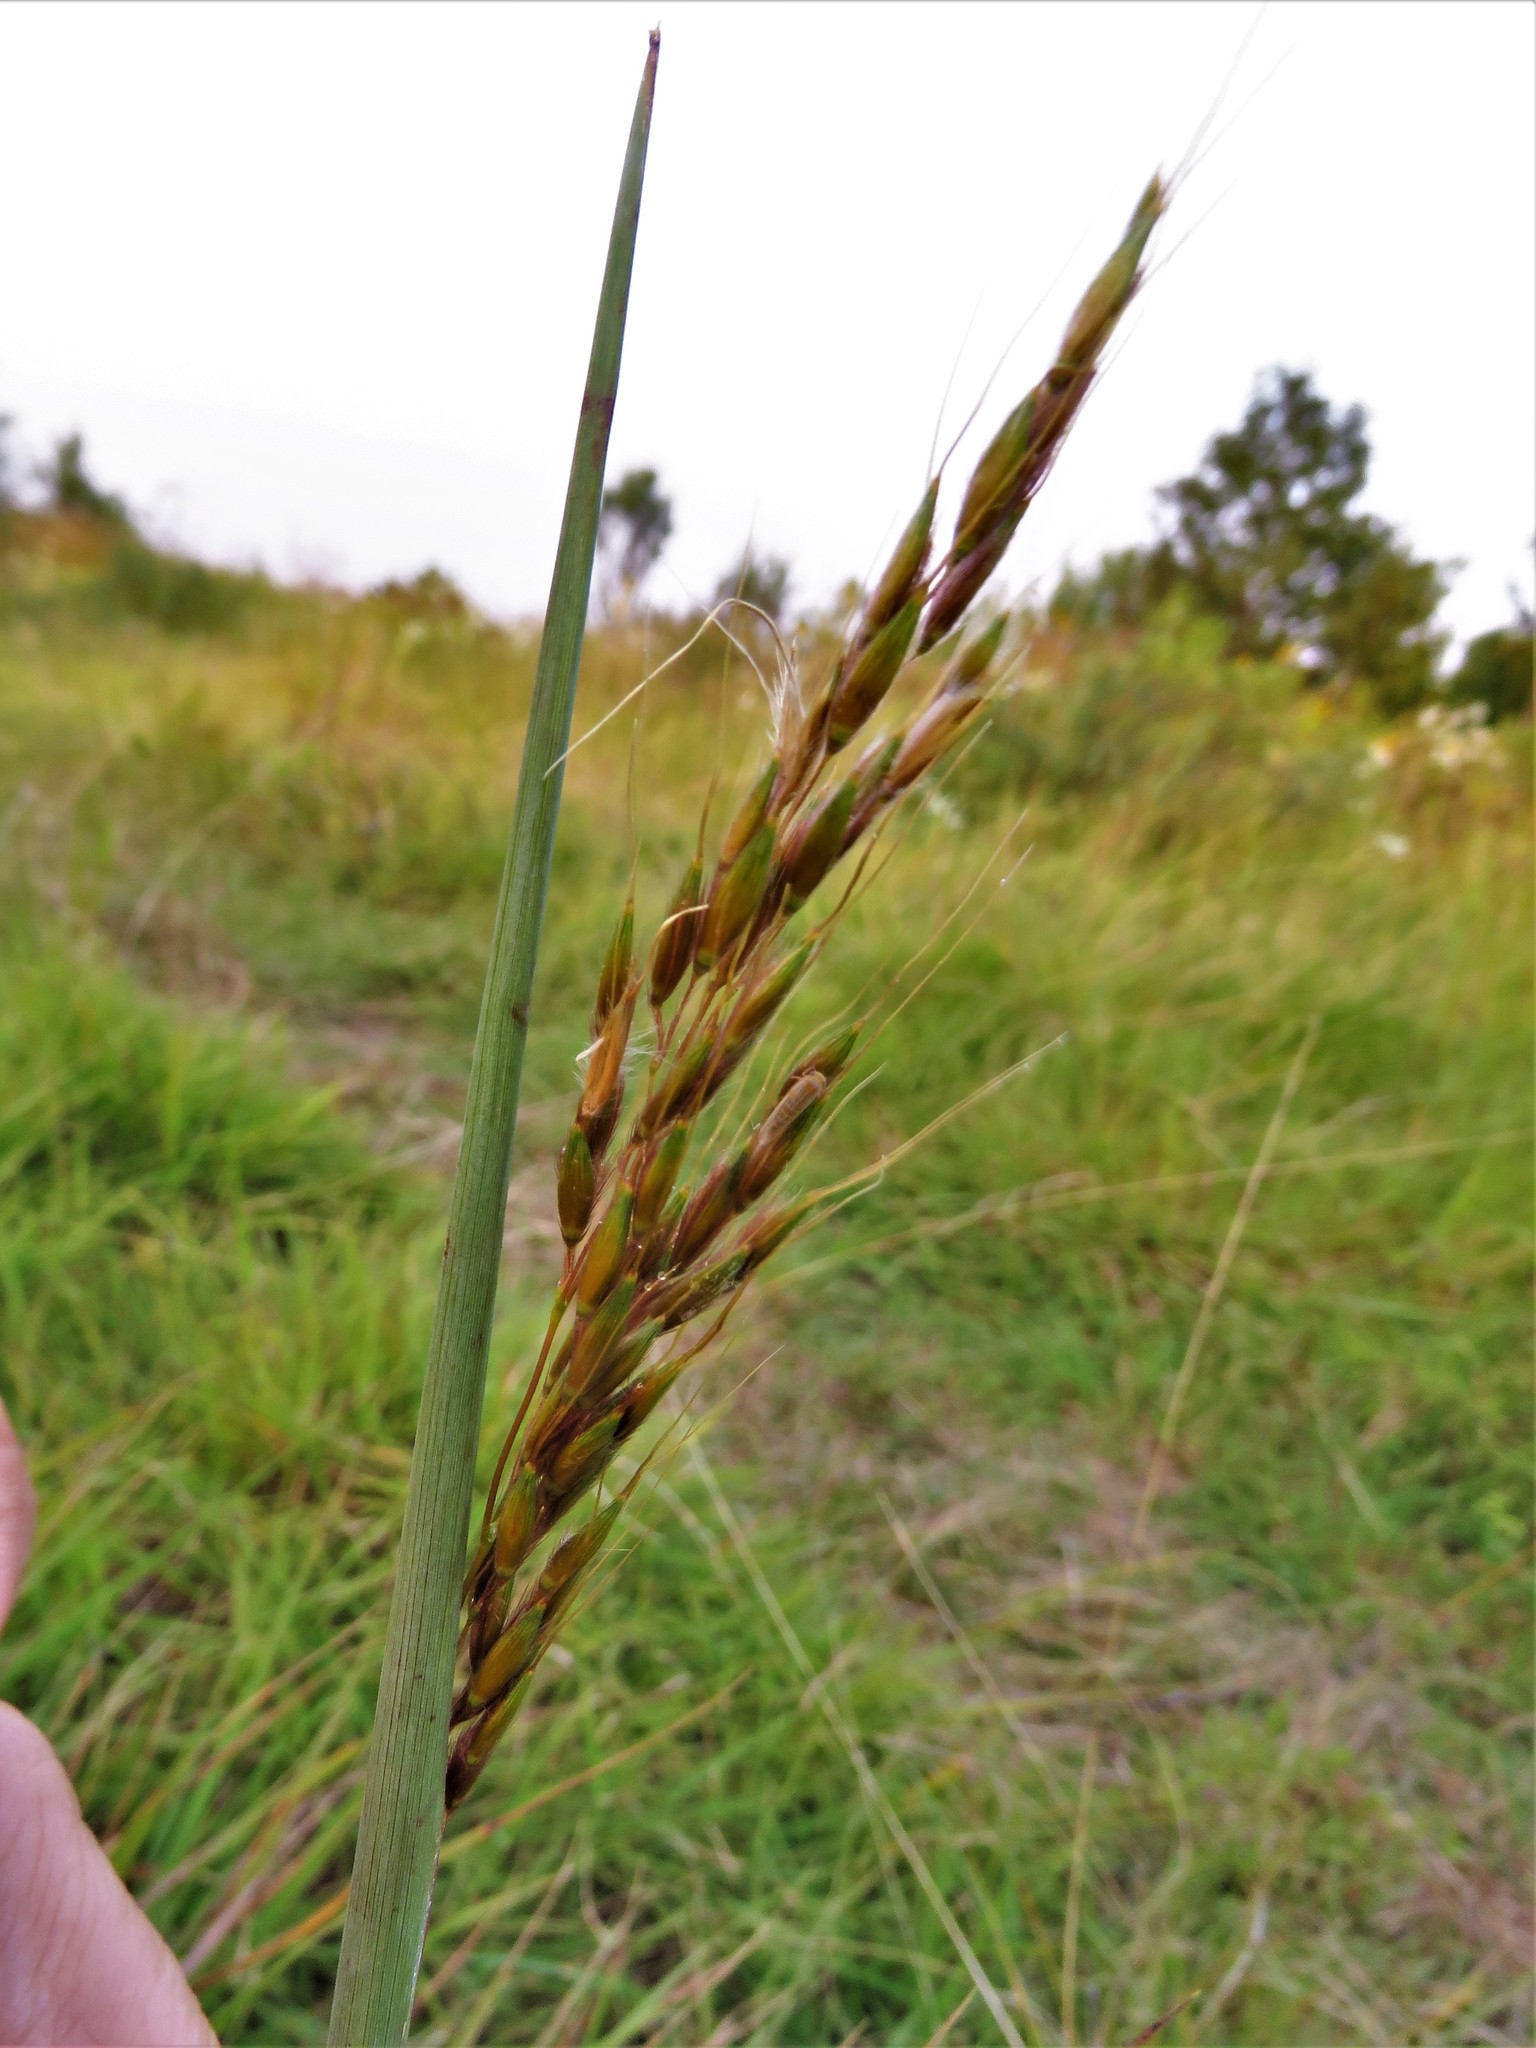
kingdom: Plantae
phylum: Tracheophyta
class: Liliopsida
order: Poales
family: Poaceae
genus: Sorghastrum
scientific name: Sorghastrum nutans
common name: Indian grass
